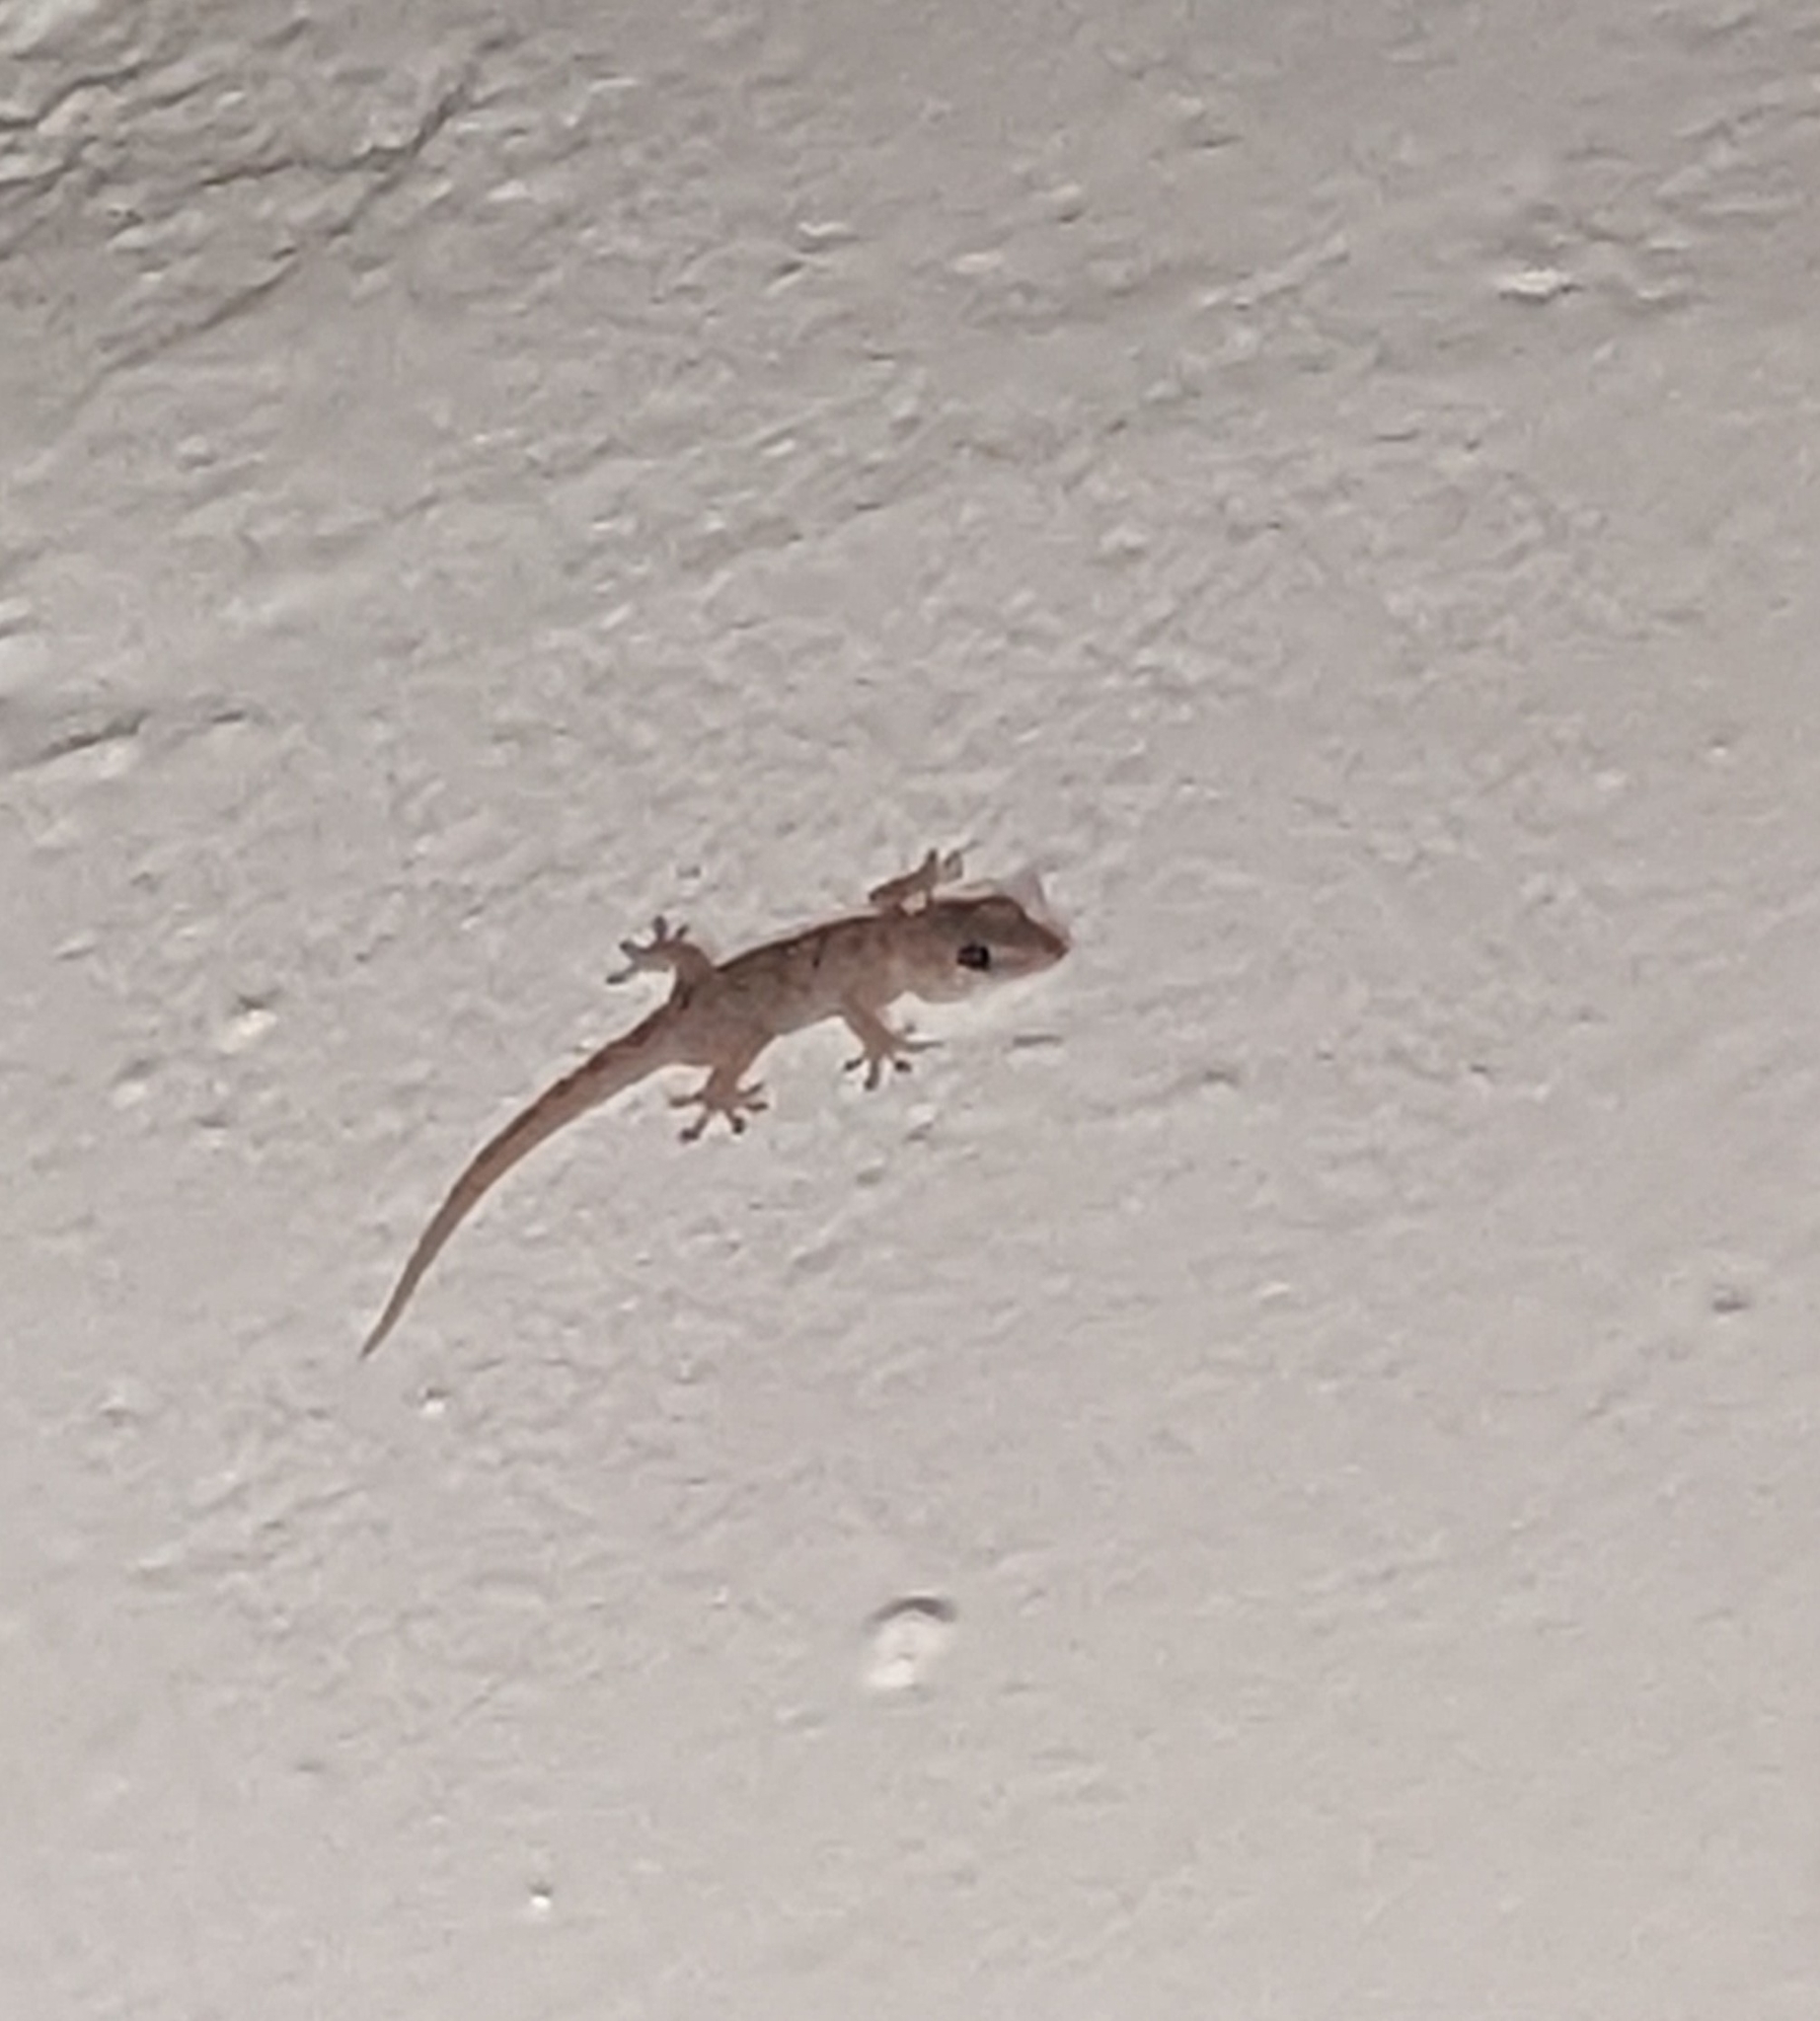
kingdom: Animalia
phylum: Chordata
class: Squamata
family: Phyllodactylidae
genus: Tarentola
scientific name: Tarentola delalandii
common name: Tenerife wall gecko
